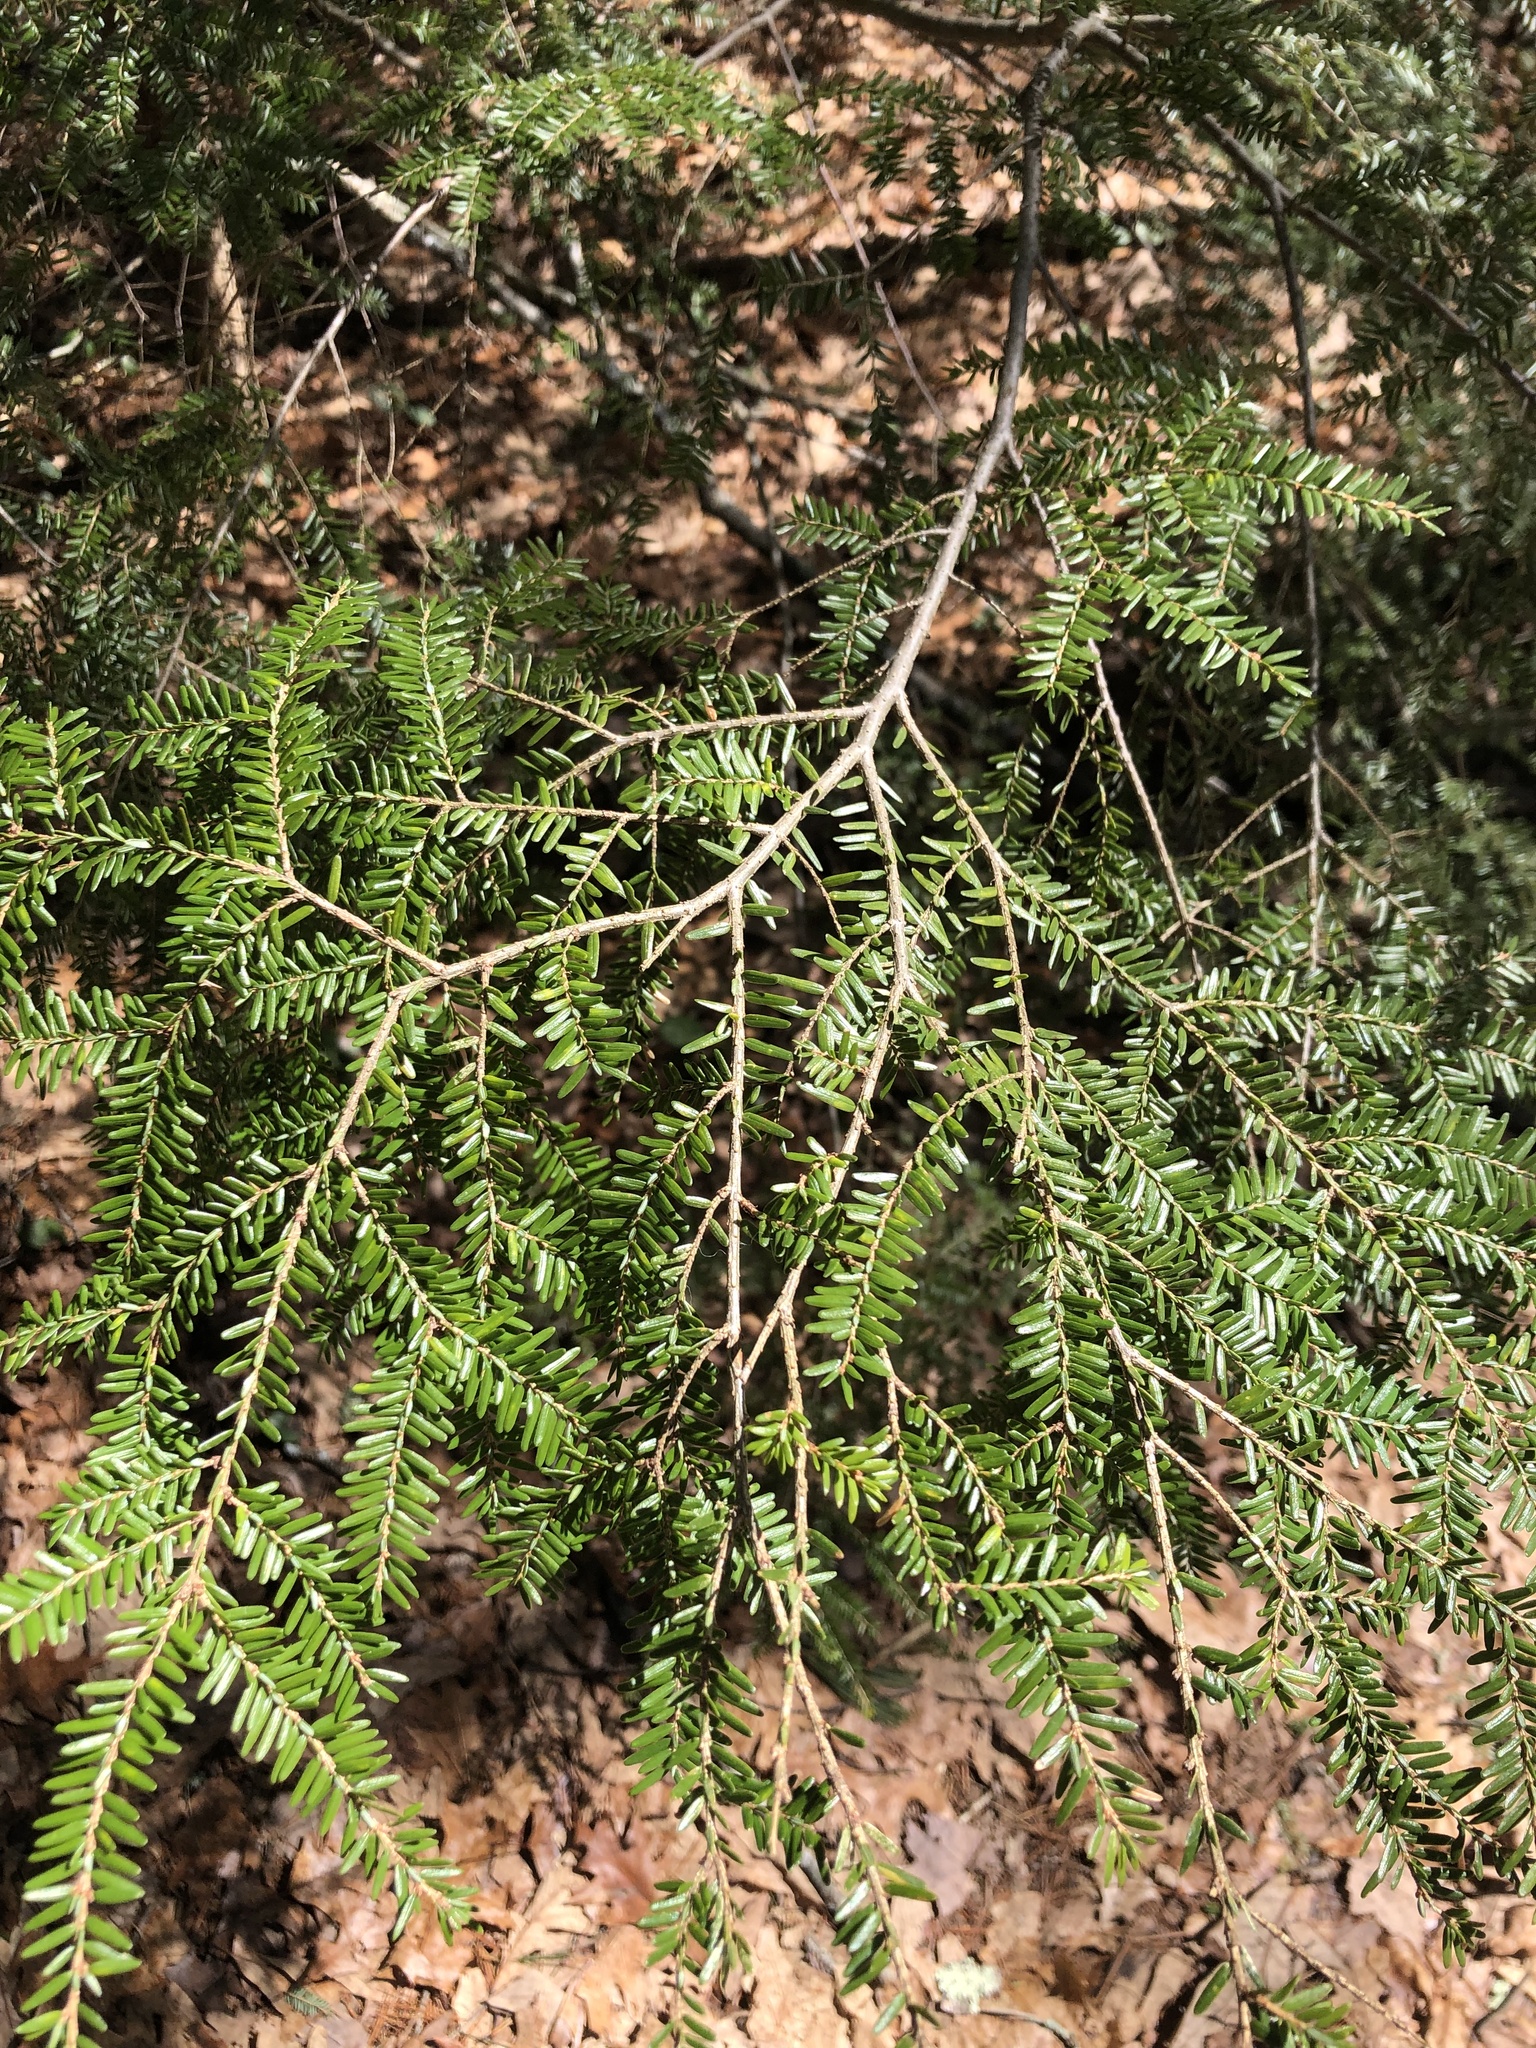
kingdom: Plantae
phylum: Tracheophyta
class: Pinopsida
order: Pinales
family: Pinaceae
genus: Tsuga
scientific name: Tsuga canadensis
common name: Eastern hemlock
